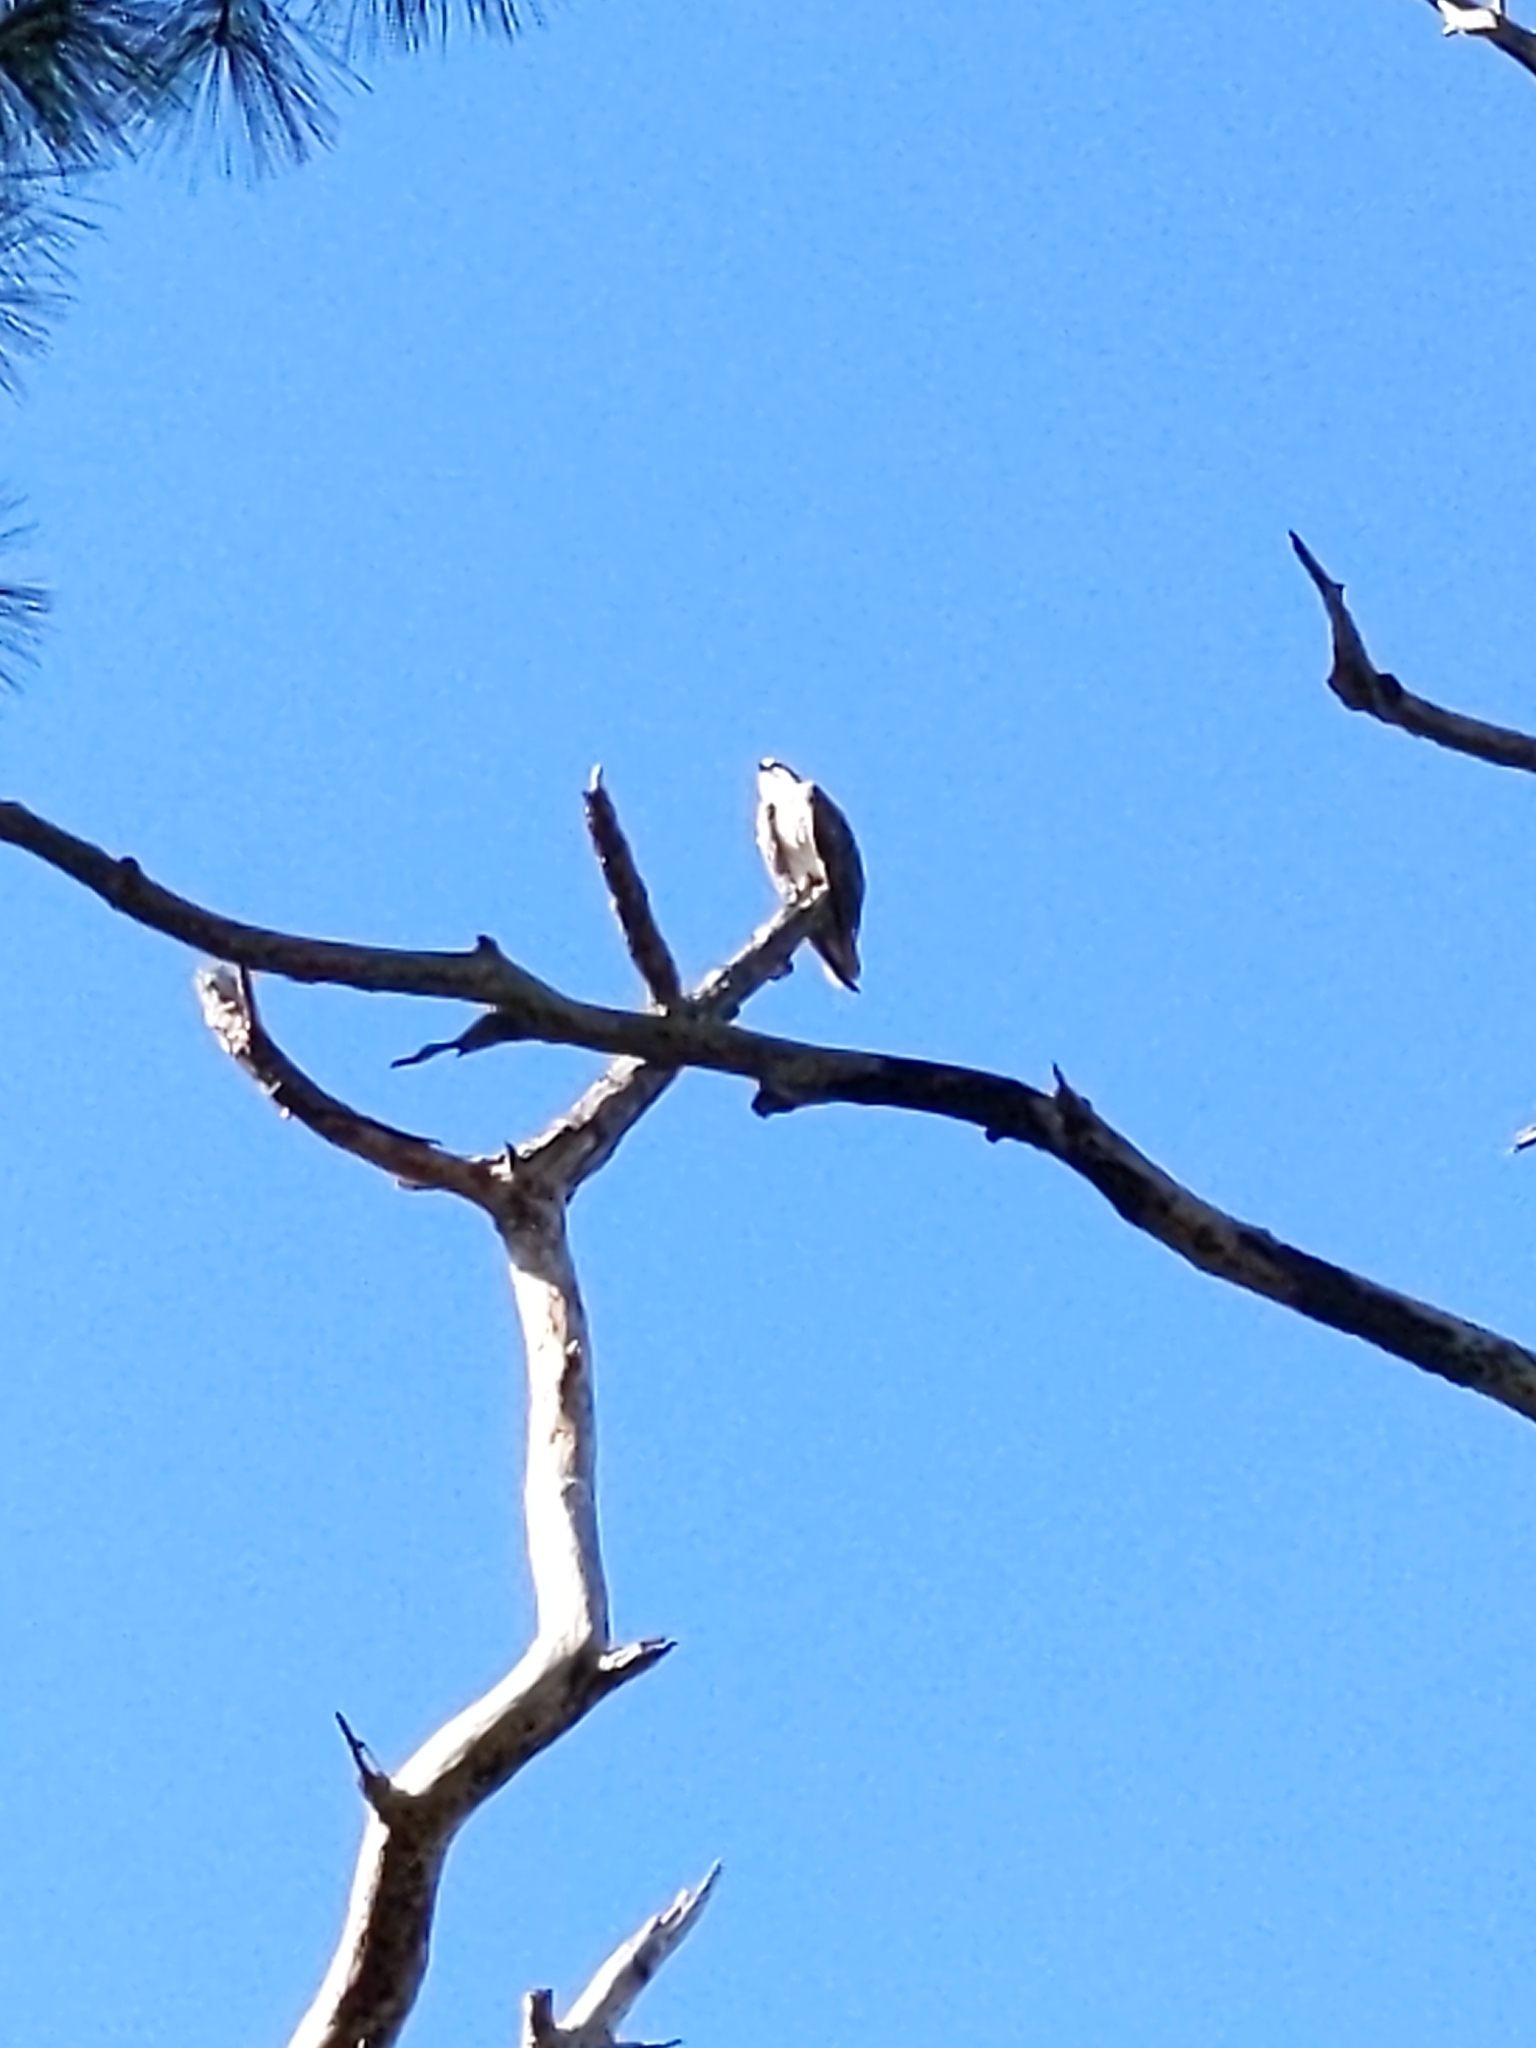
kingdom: Animalia
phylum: Chordata
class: Aves
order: Accipitriformes
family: Pandionidae
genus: Pandion
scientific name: Pandion haliaetus
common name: Osprey
